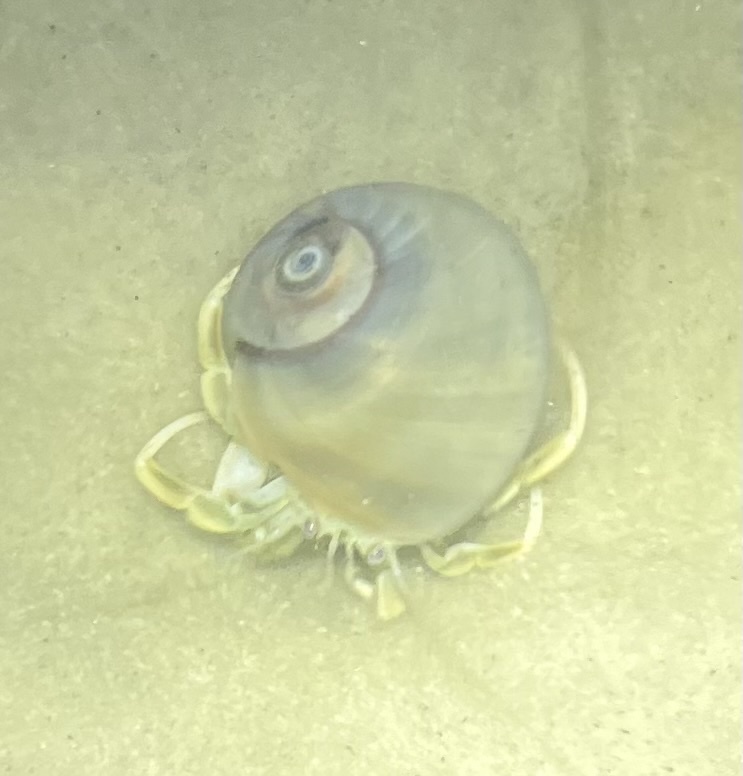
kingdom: Animalia
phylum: Arthropoda
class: Malacostraca
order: Decapoda
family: Paguridae
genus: Pagurus
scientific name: Pagurus longicarpus
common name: Long-armed hermit crab
